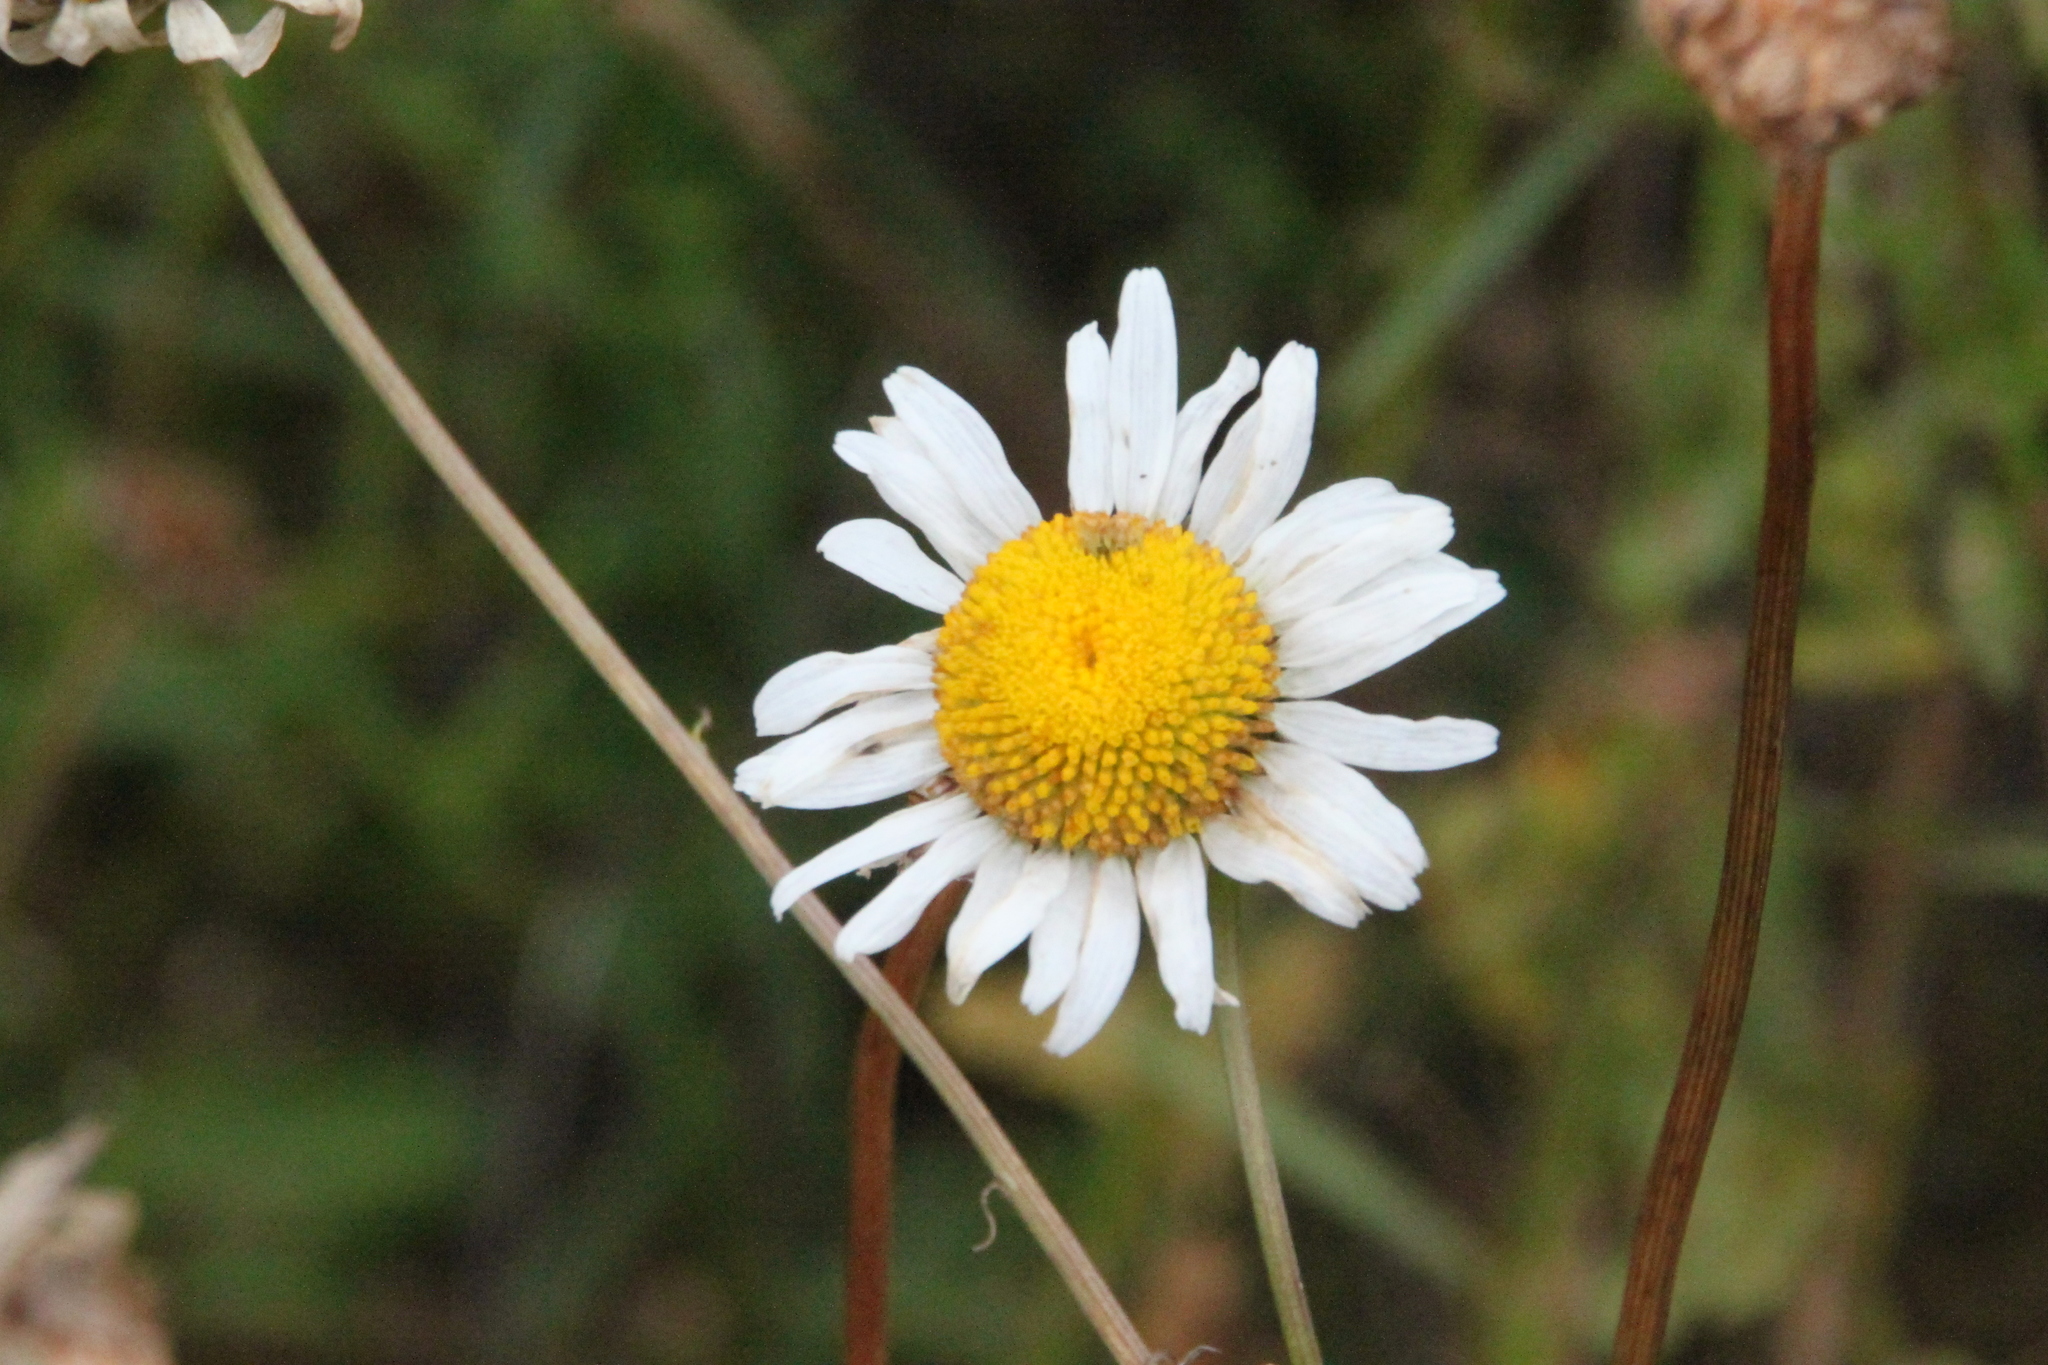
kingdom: Plantae
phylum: Tracheophyta
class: Magnoliopsida
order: Asterales
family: Asteraceae
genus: Leucanthemum
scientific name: Leucanthemum vulgare
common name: Oxeye daisy
